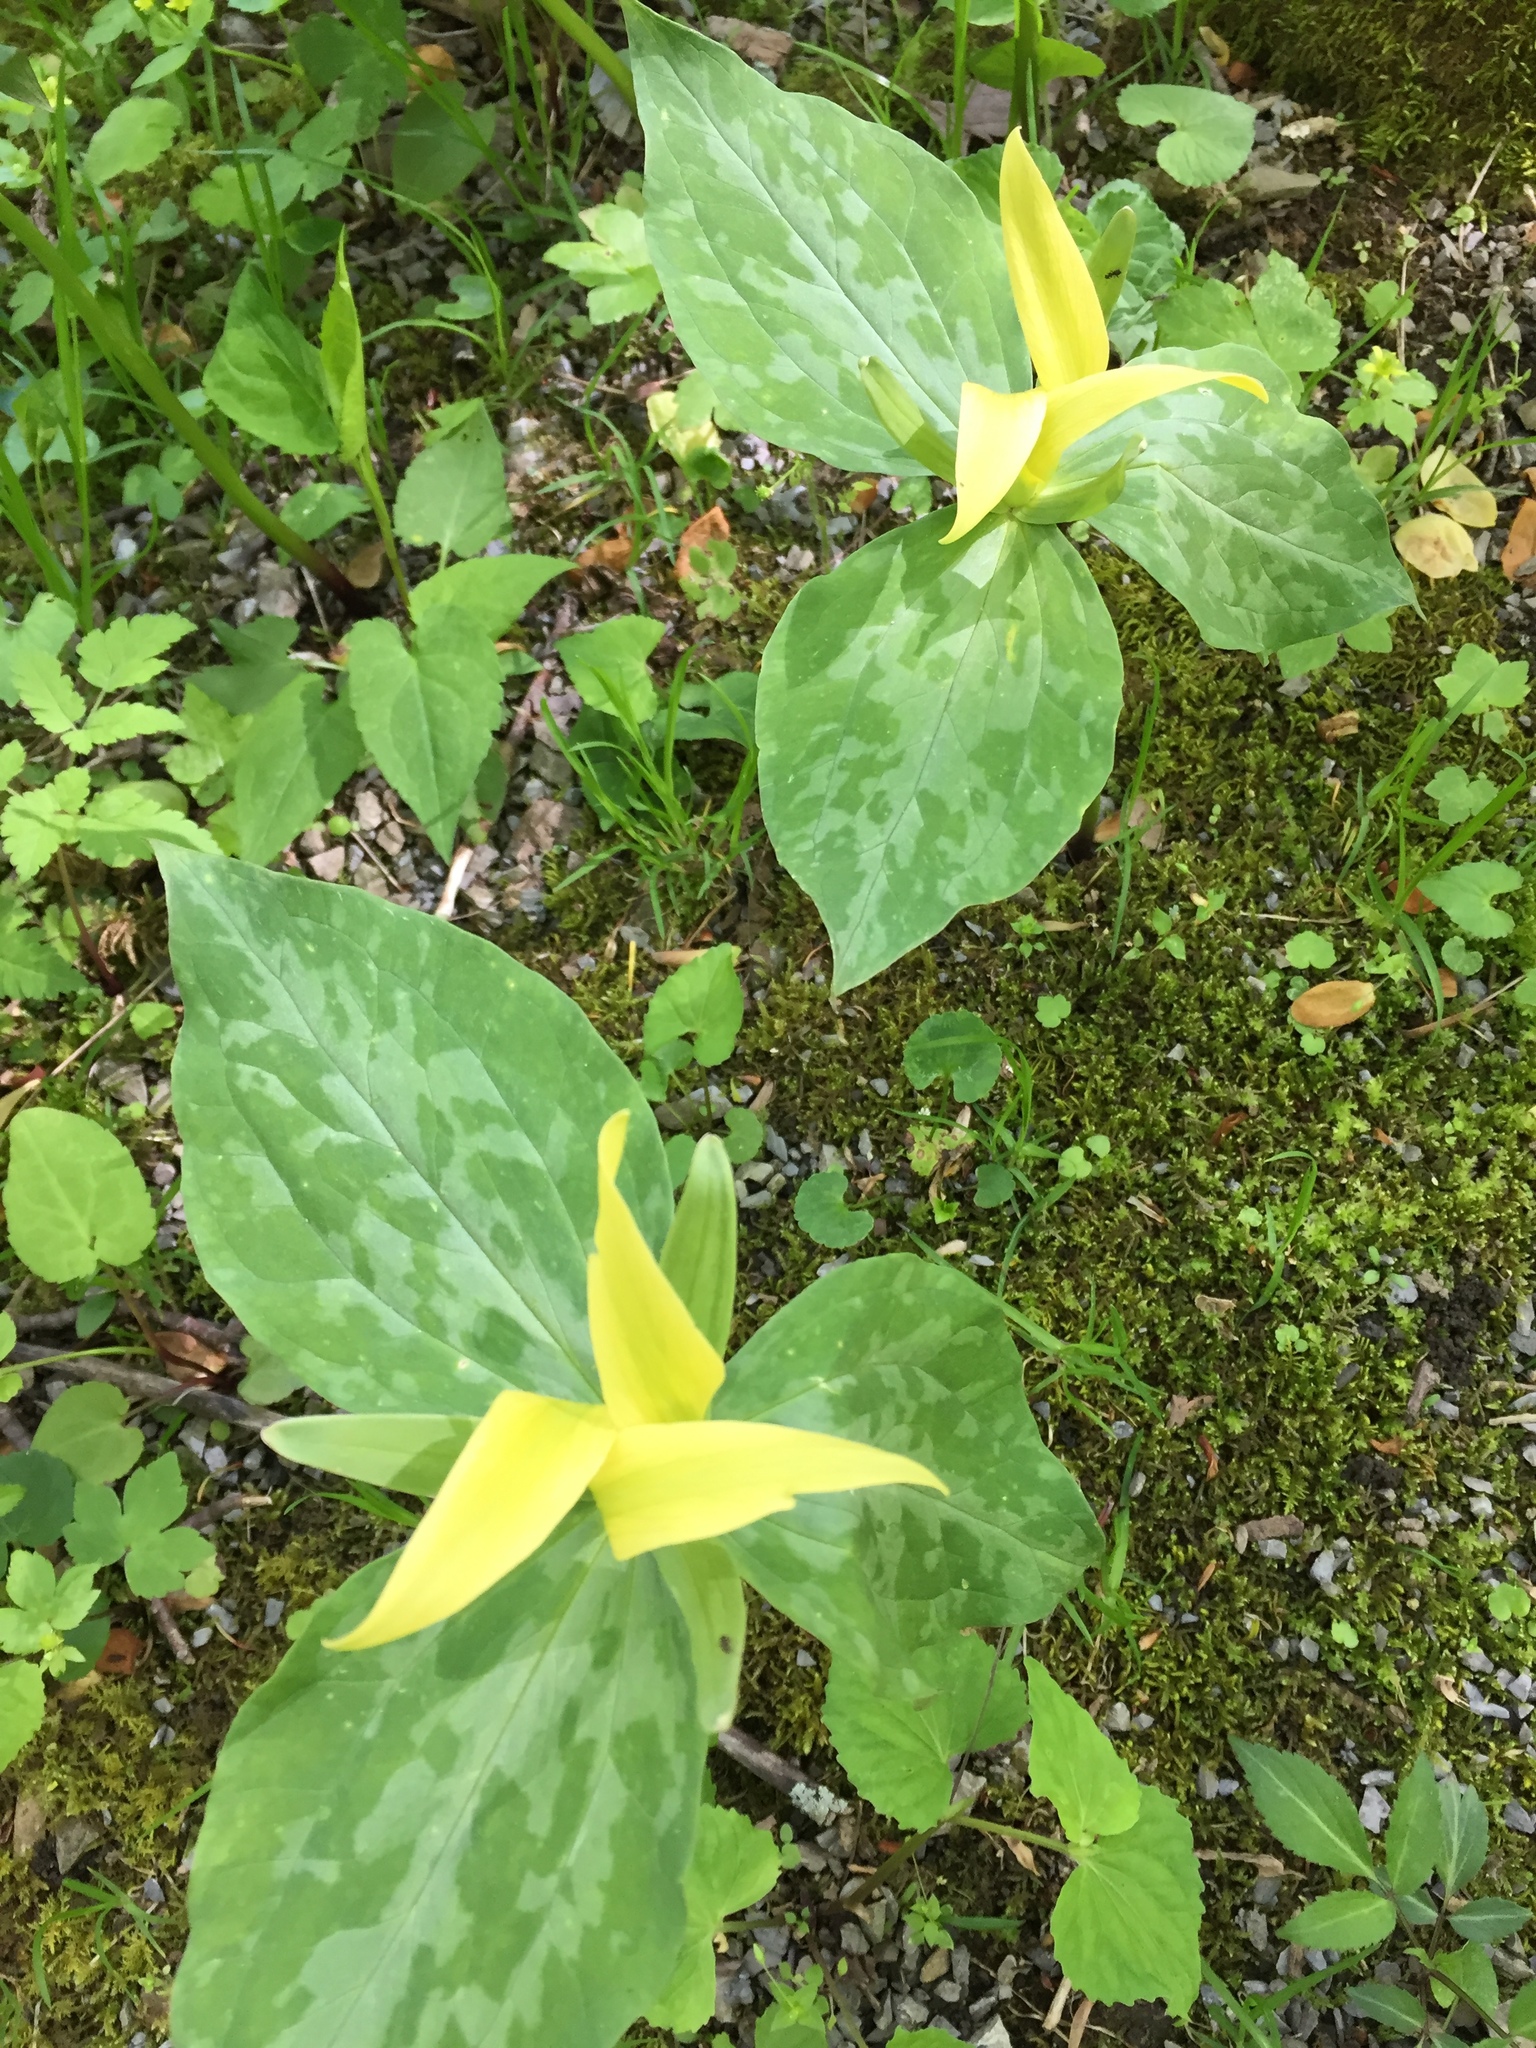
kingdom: Plantae
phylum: Tracheophyta
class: Liliopsida
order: Liliales
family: Melanthiaceae
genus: Trillium
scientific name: Trillium luteum
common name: Wax trillium
